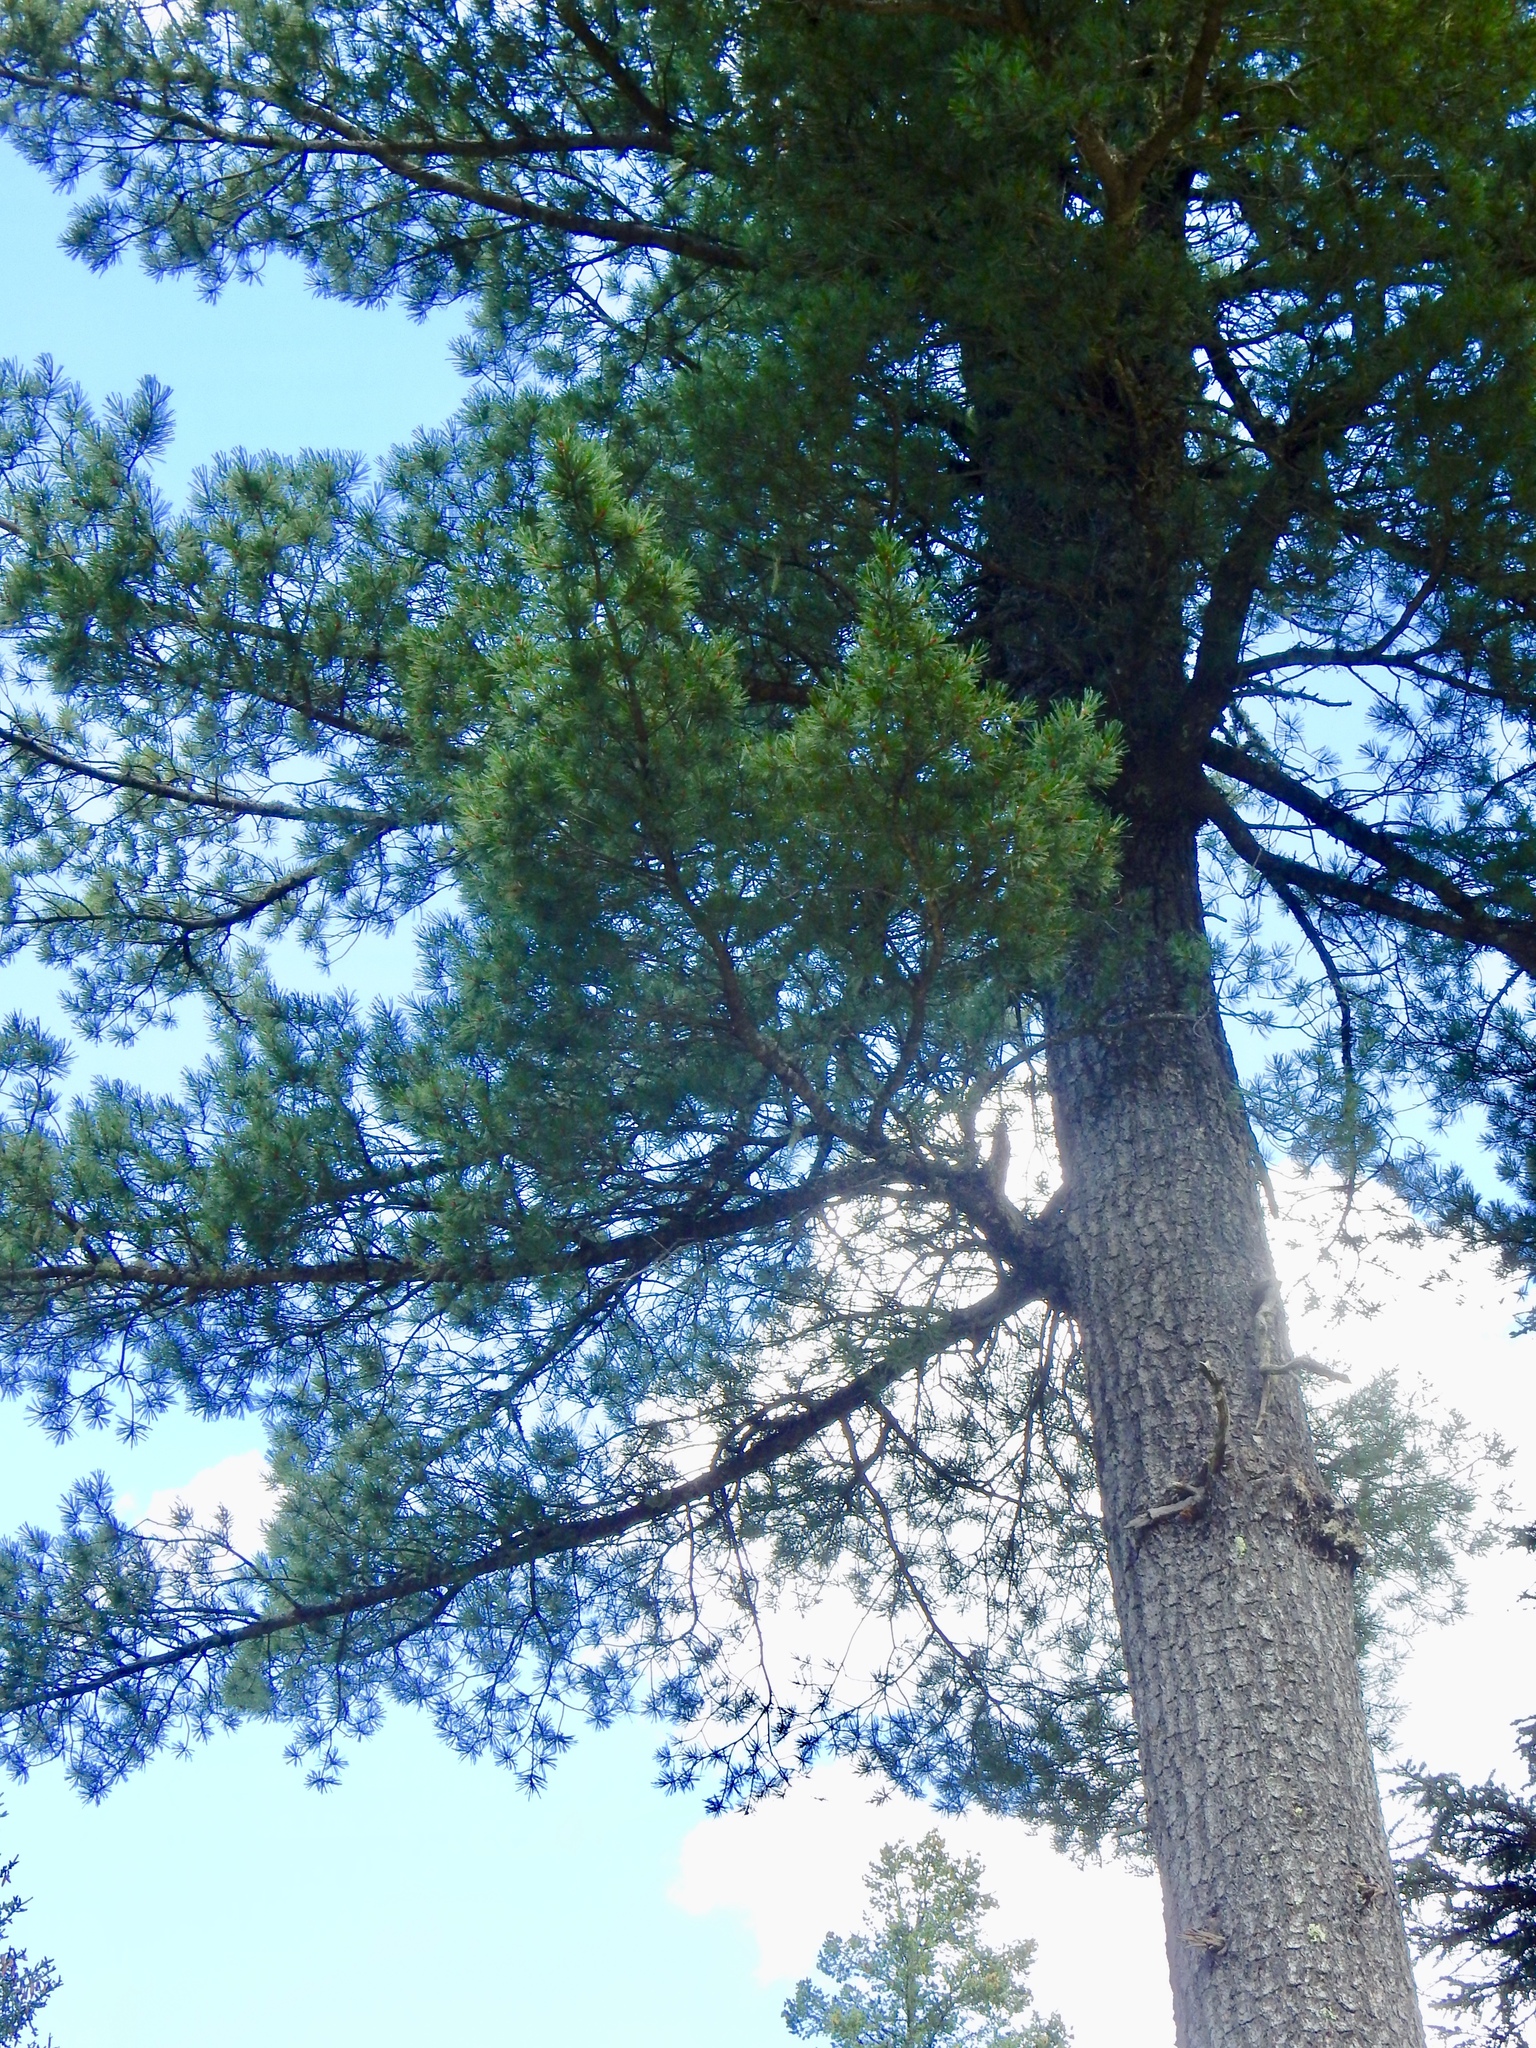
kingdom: Plantae
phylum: Tracheophyta
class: Pinopsida
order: Pinales
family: Pinaceae
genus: Pinus
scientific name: Pinus strobiformis
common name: Southwestern white pine
